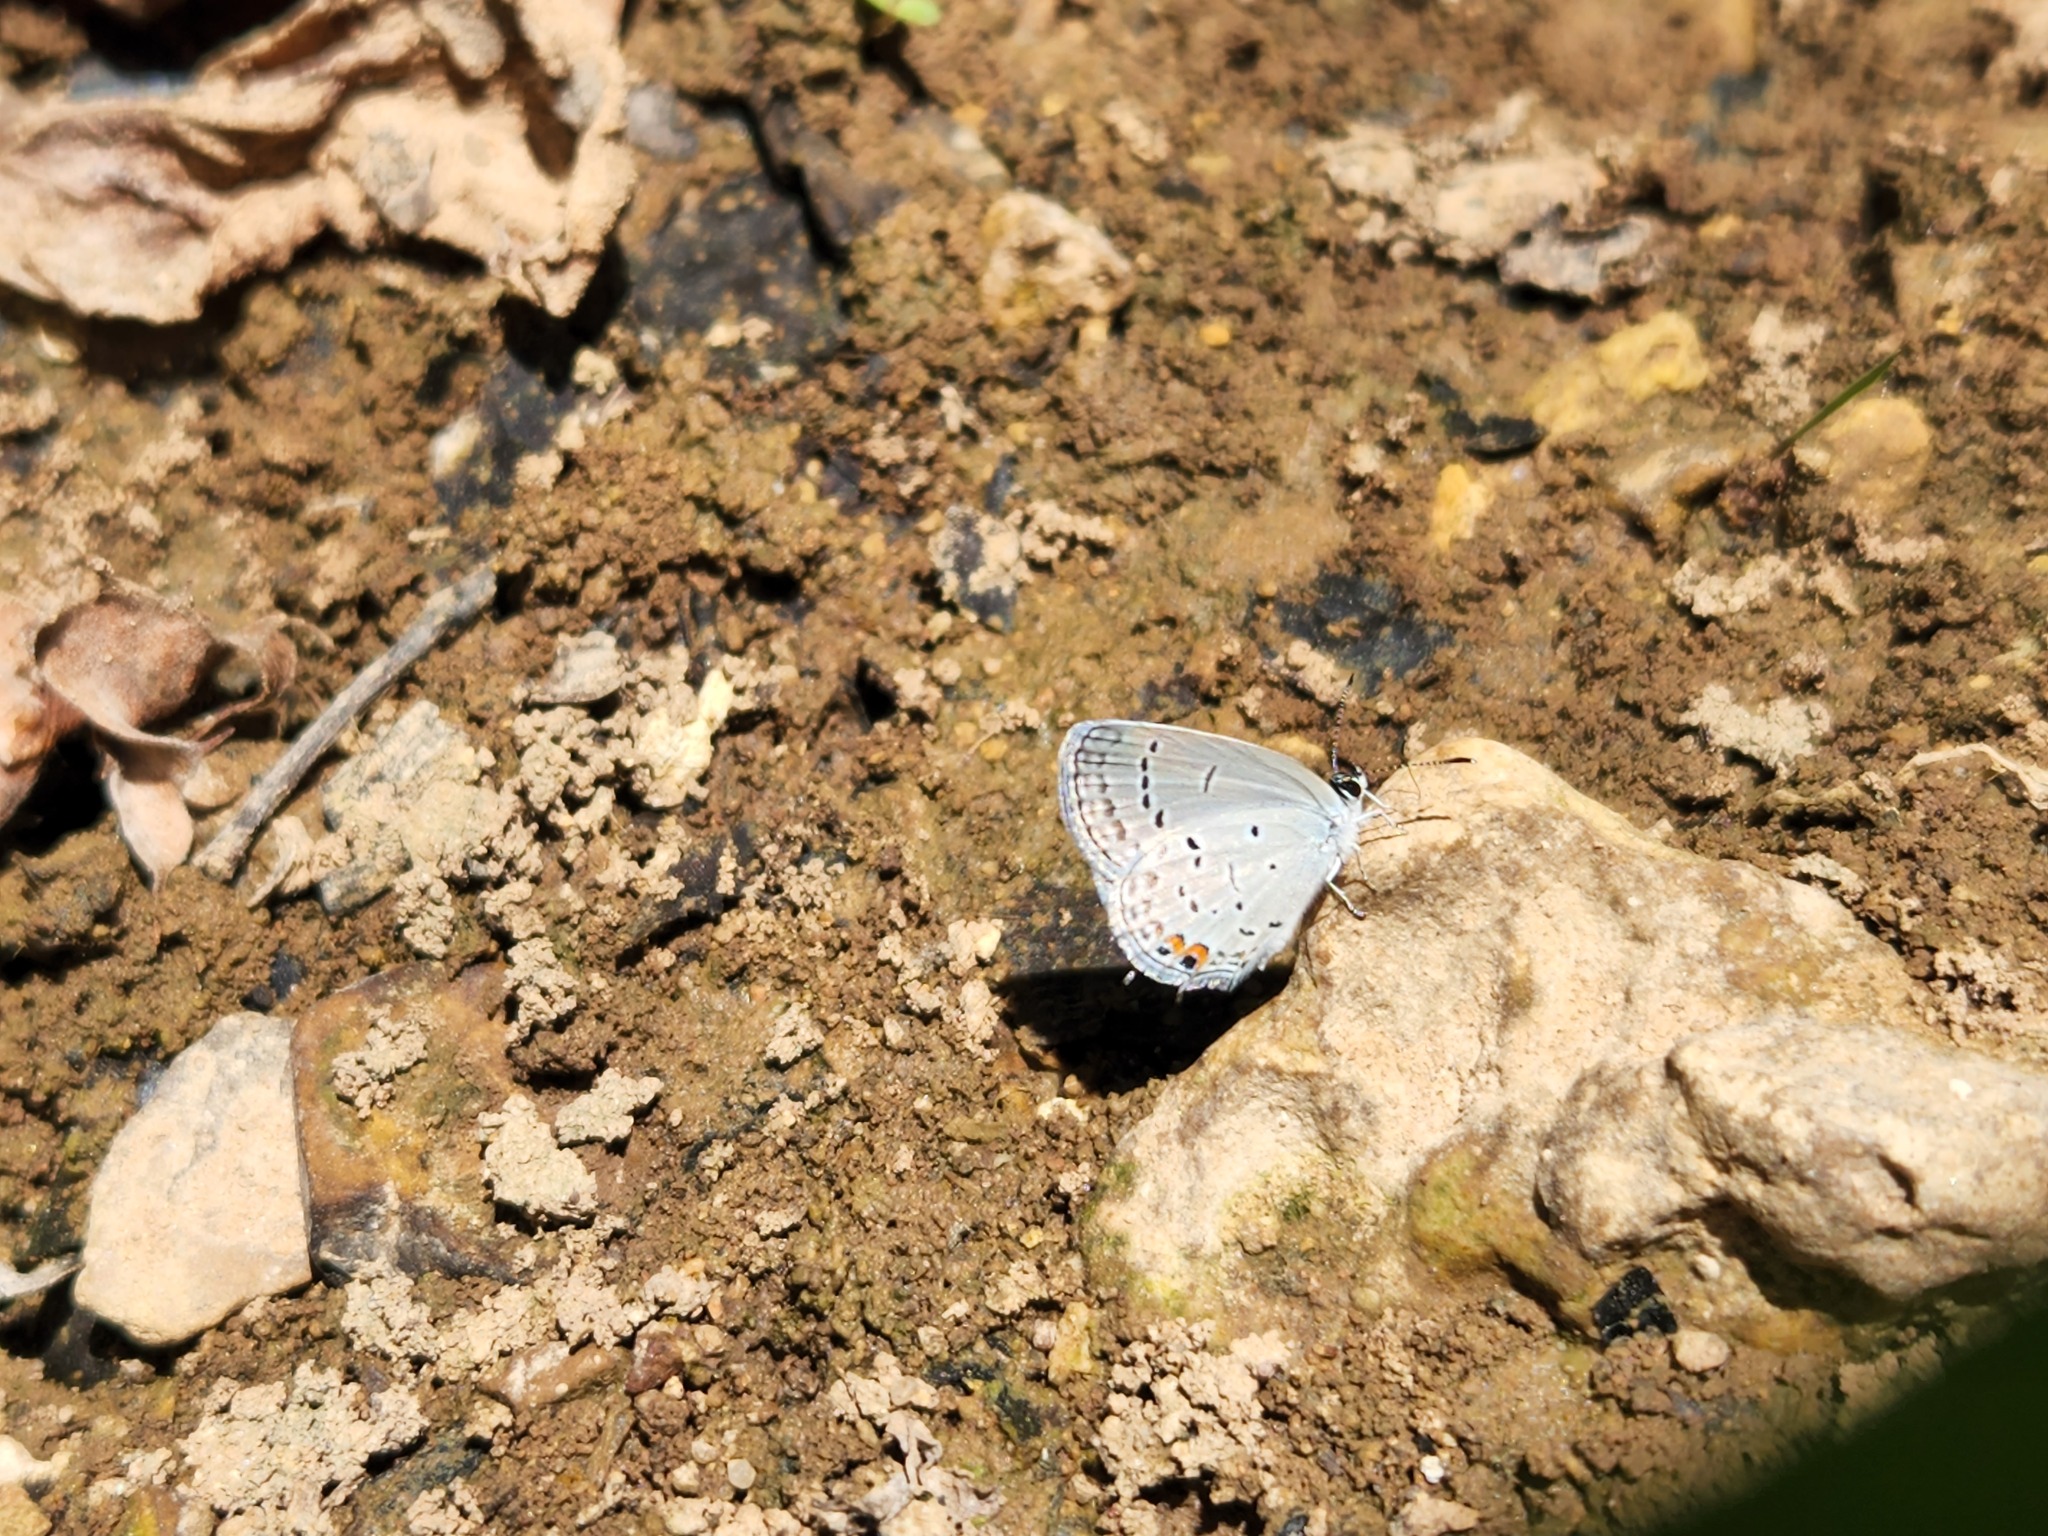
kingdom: Animalia
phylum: Arthropoda
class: Insecta
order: Lepidoptera
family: Lycaenidae
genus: Elkalyce
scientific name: Elkalyce comyntas
